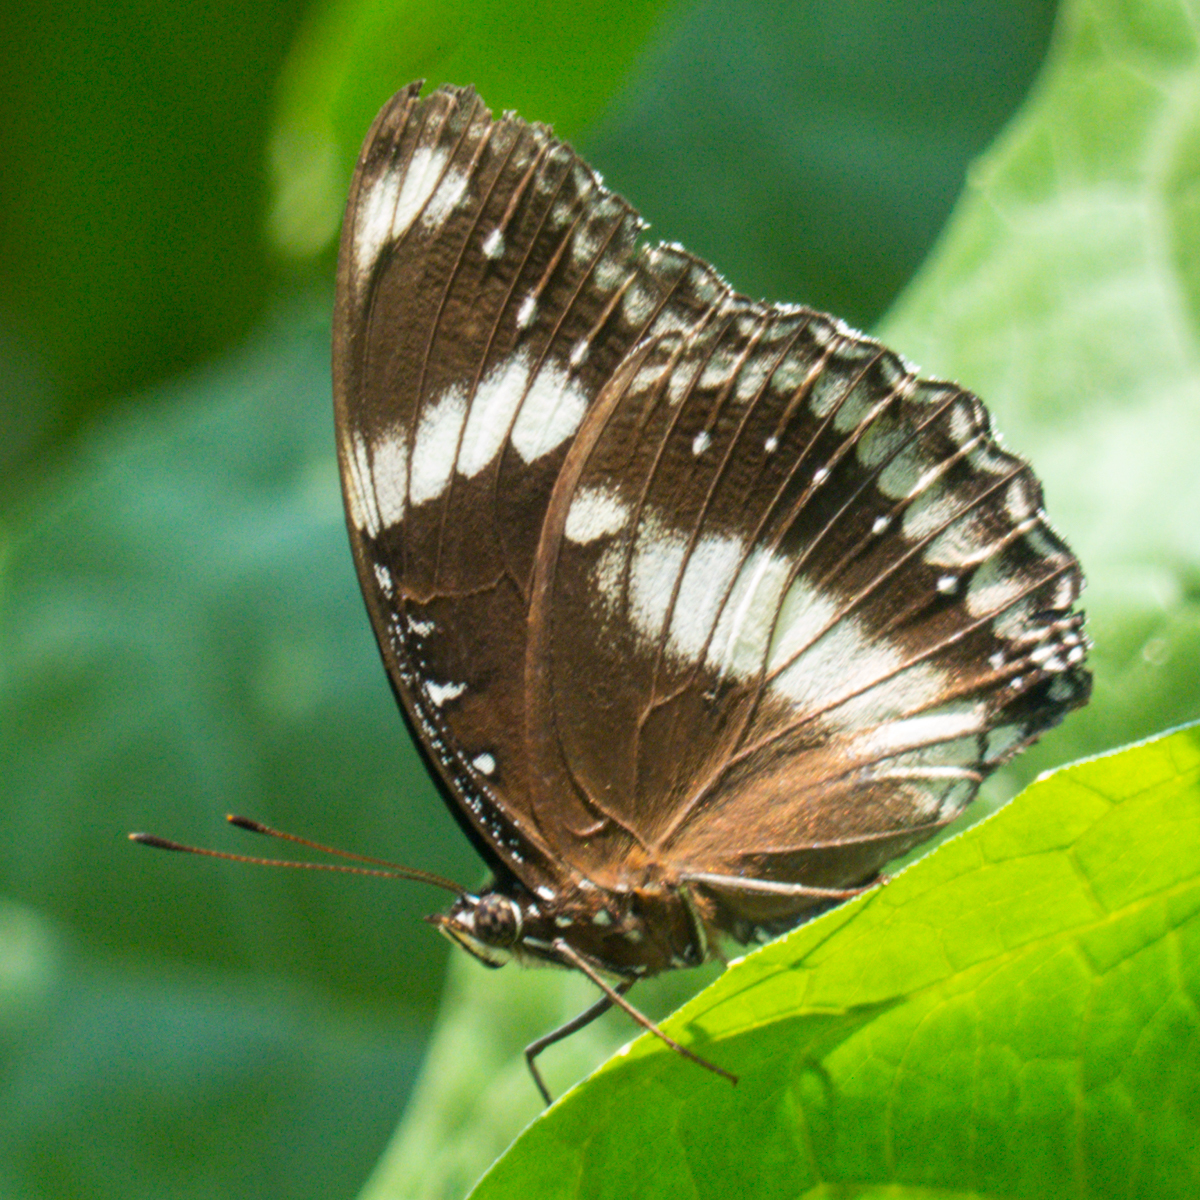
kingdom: Animalia
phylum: Arthropoda
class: Insecta
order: Lepidoptera
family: Nymphalidae
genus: Hypolimnas
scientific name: Hypolimnas bolina
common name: Great eggfly
